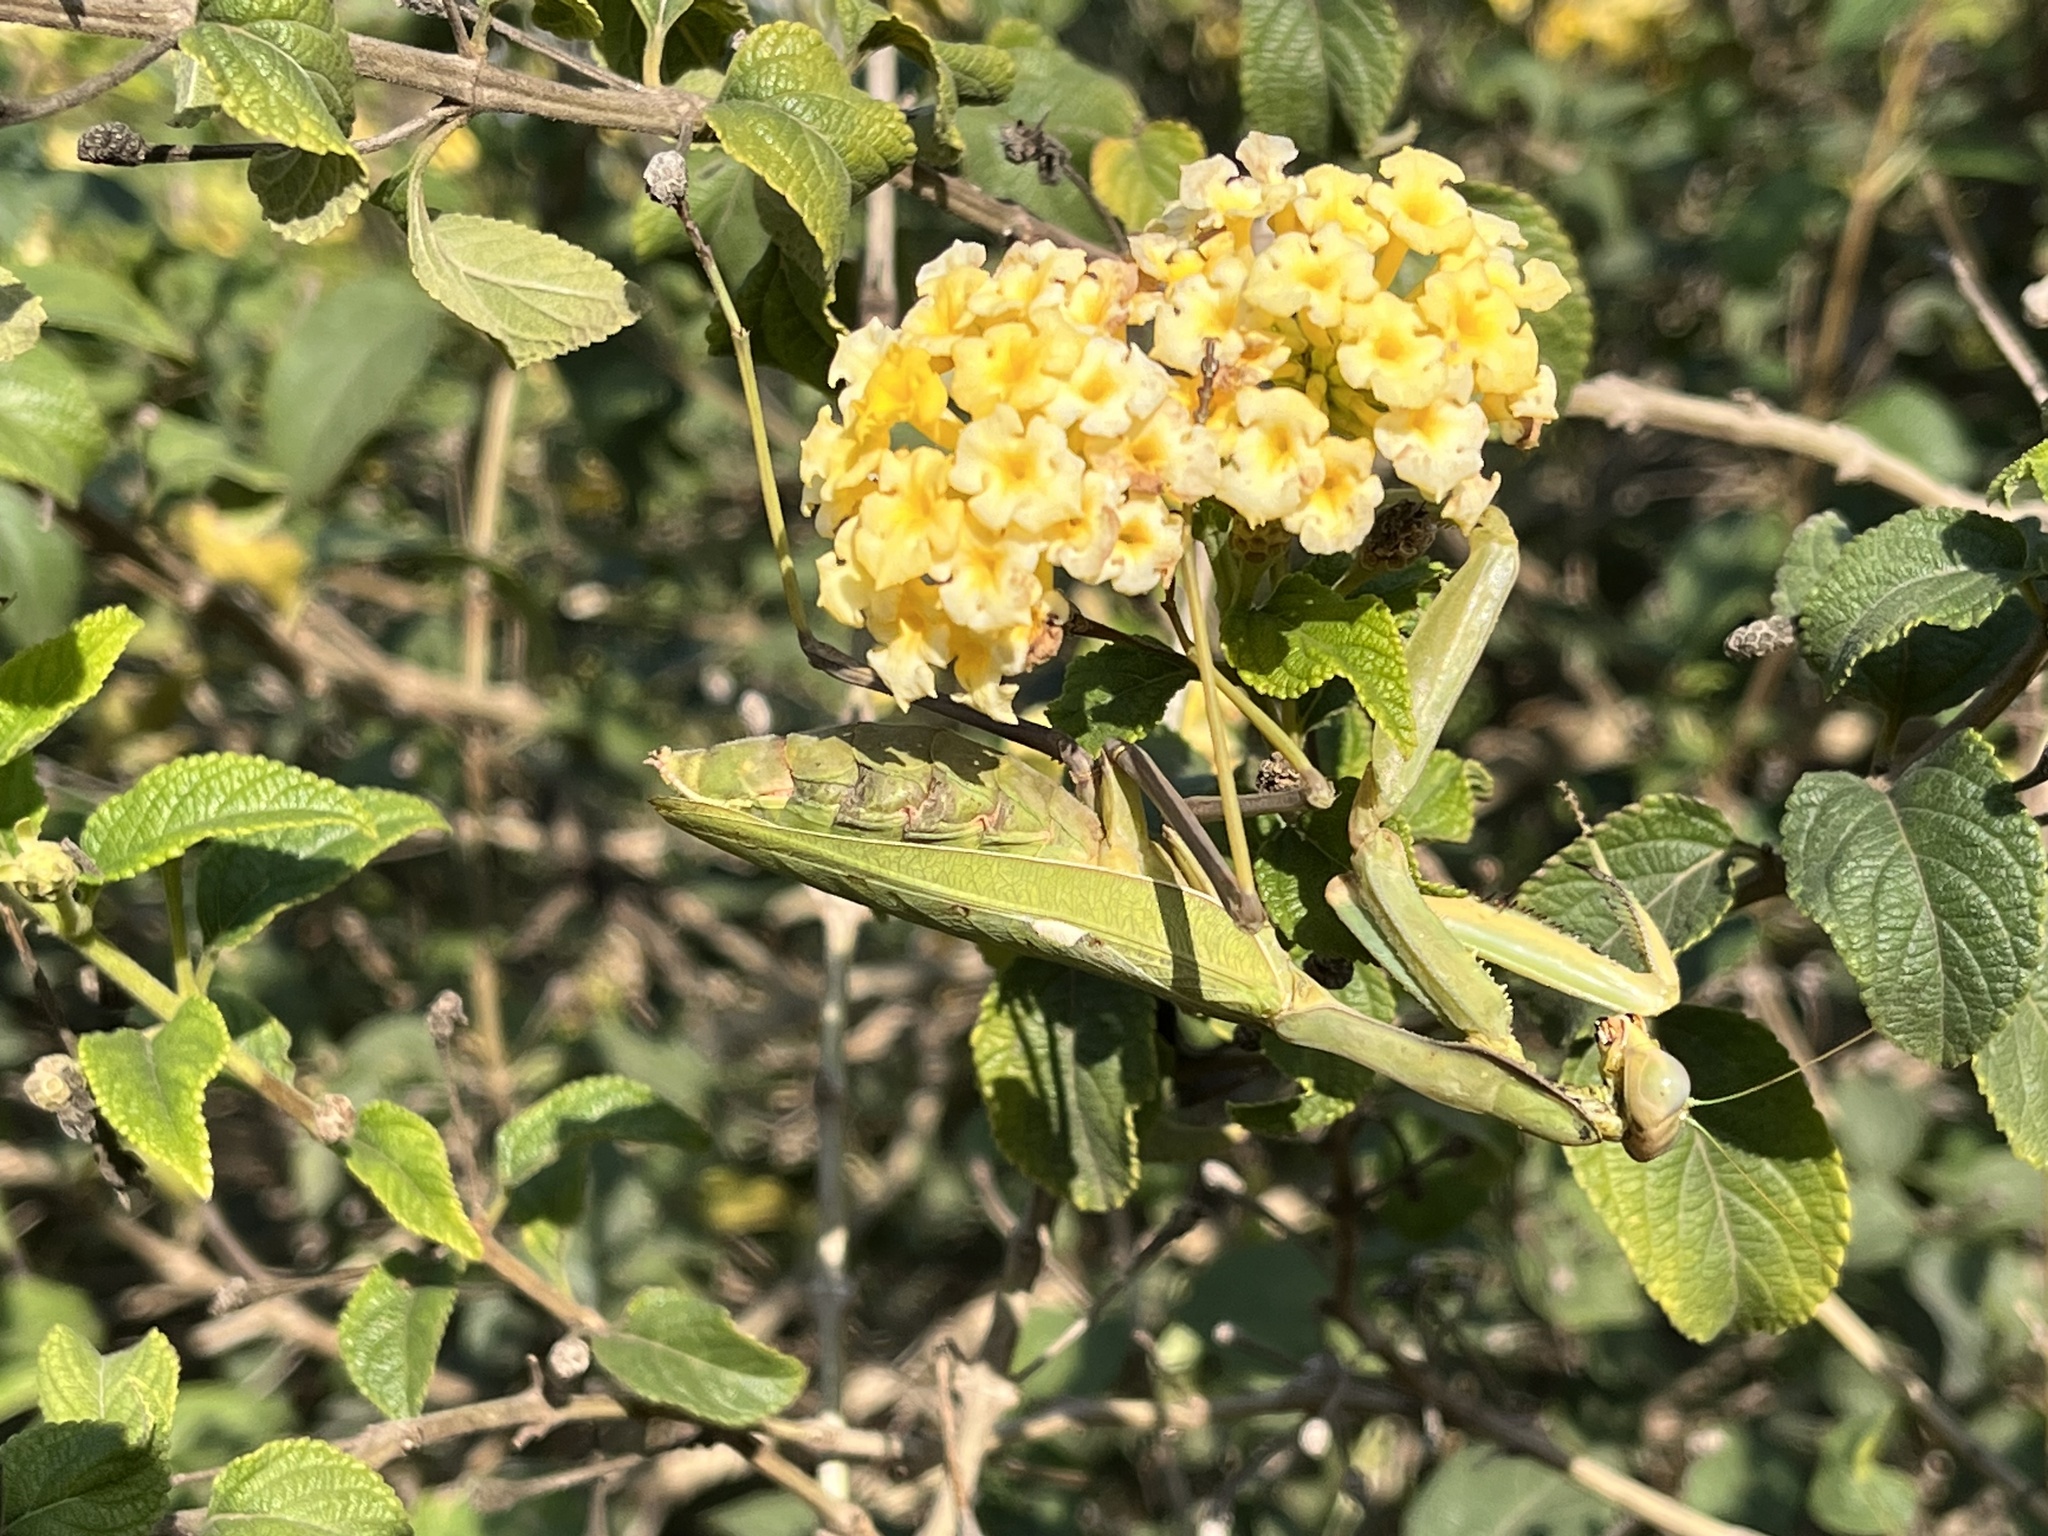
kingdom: Animalia
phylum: Arthropoda
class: Insecta
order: Mantodea
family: Mantidae
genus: Sphodromantis
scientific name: Sphodromantis viridis
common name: Giant african mantis
